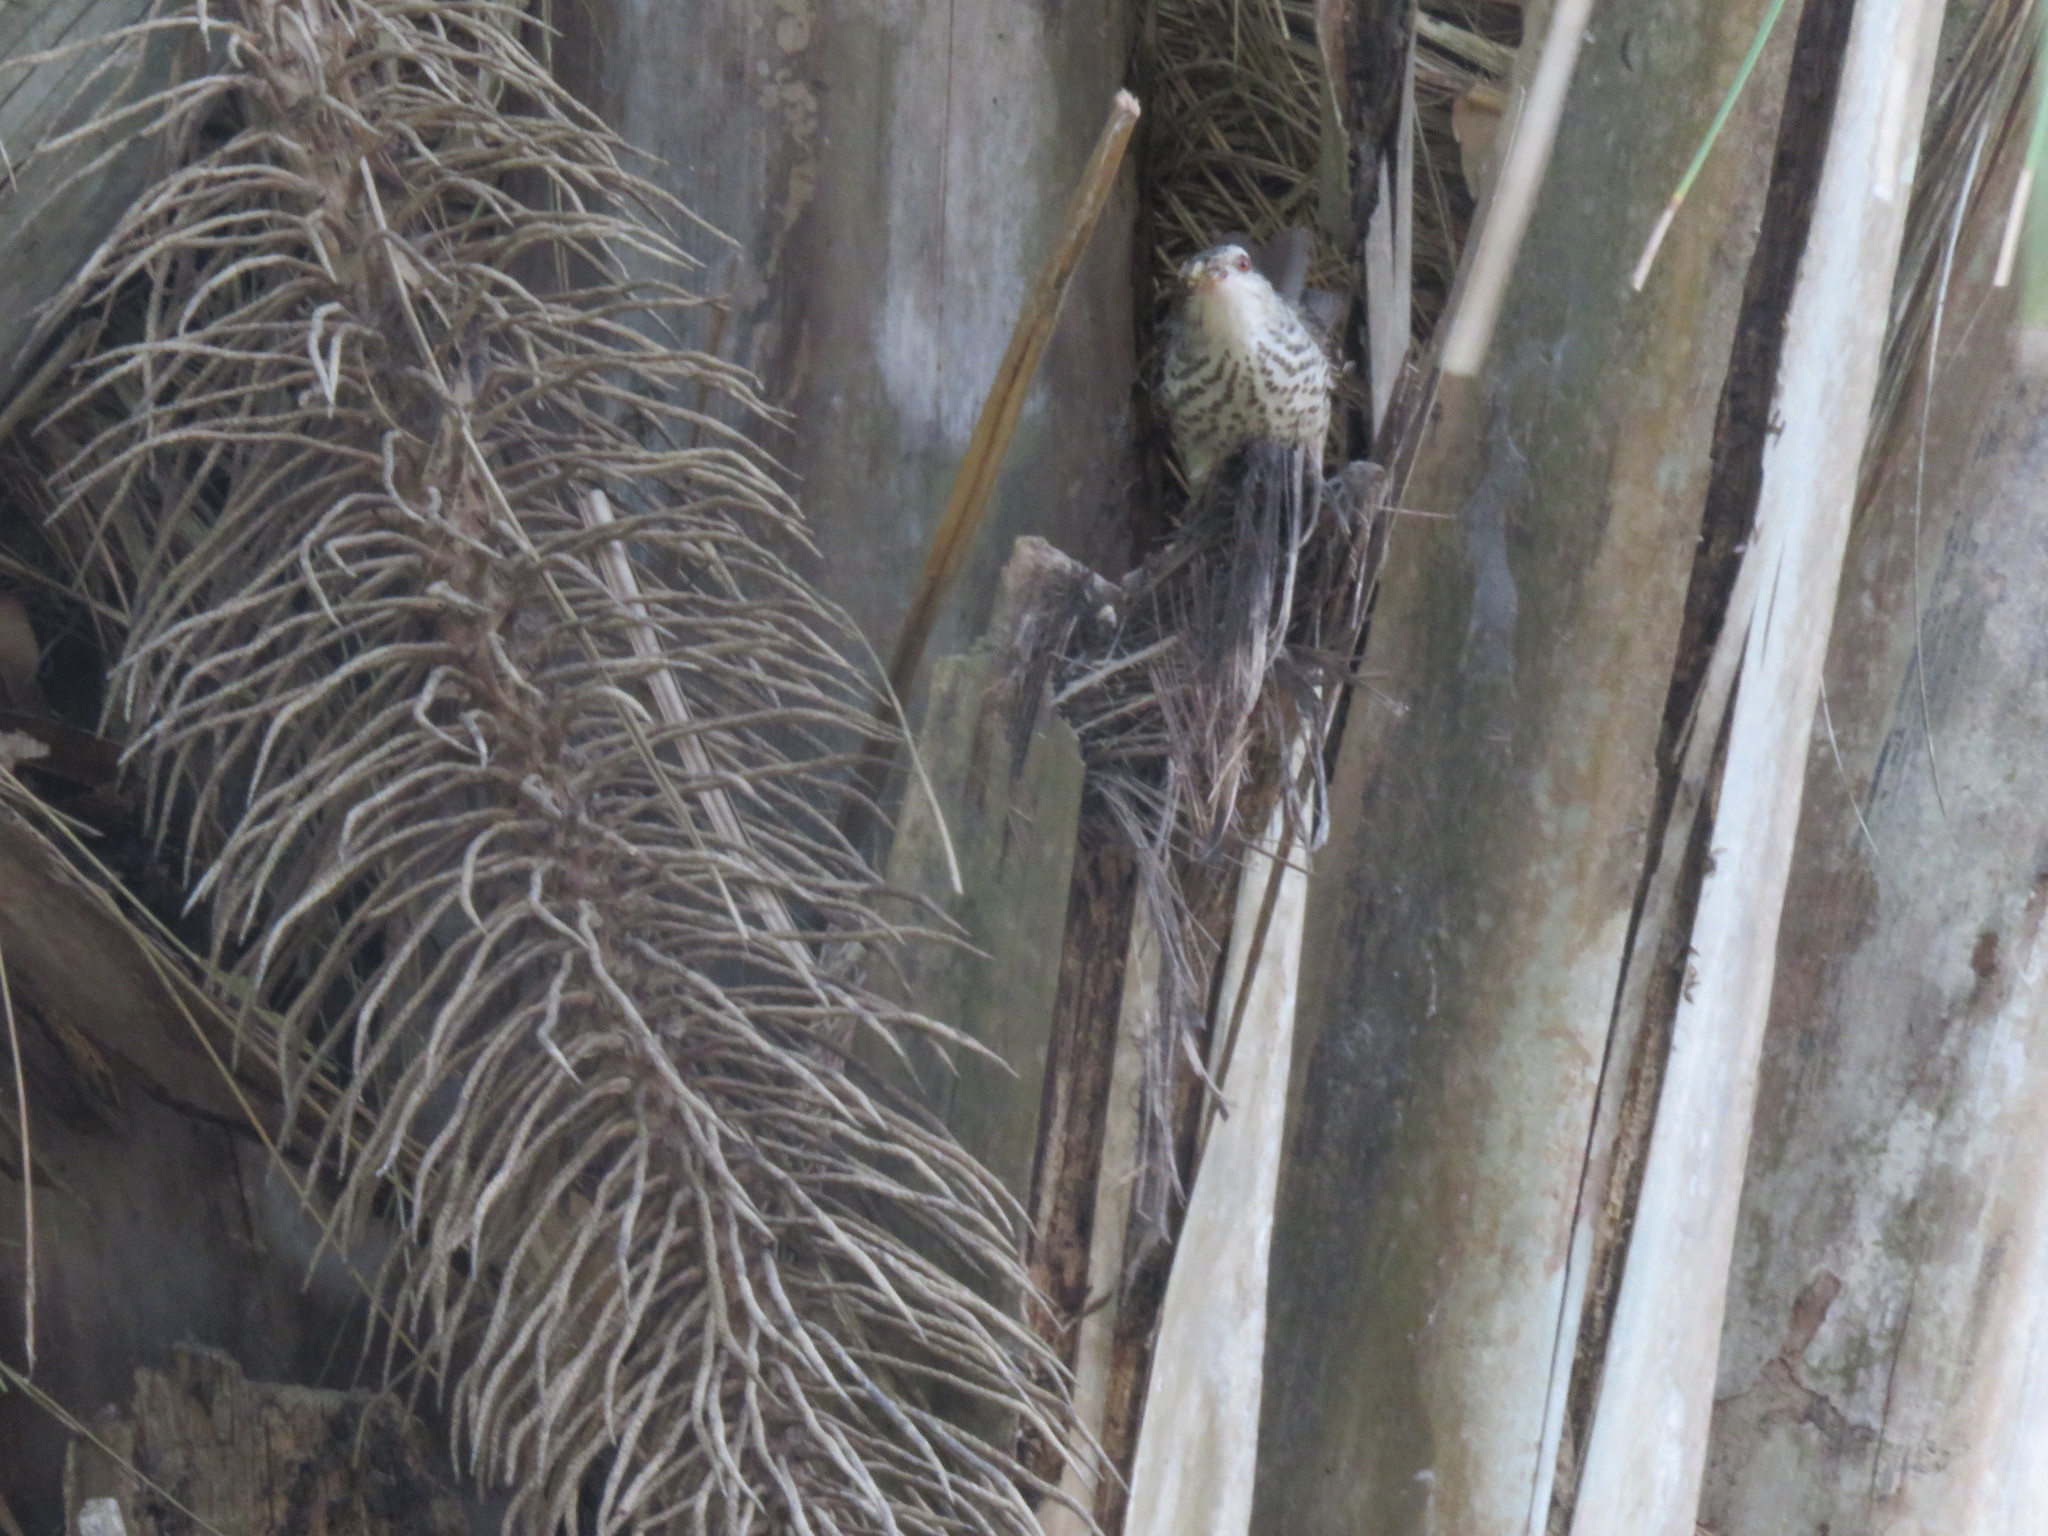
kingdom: Animalia
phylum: Chordata
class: Aves
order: Passeriformes
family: Troglodytidae
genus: Campylorhynchus
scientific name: Campylorhynchus turdinus
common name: Thrush-like wren
